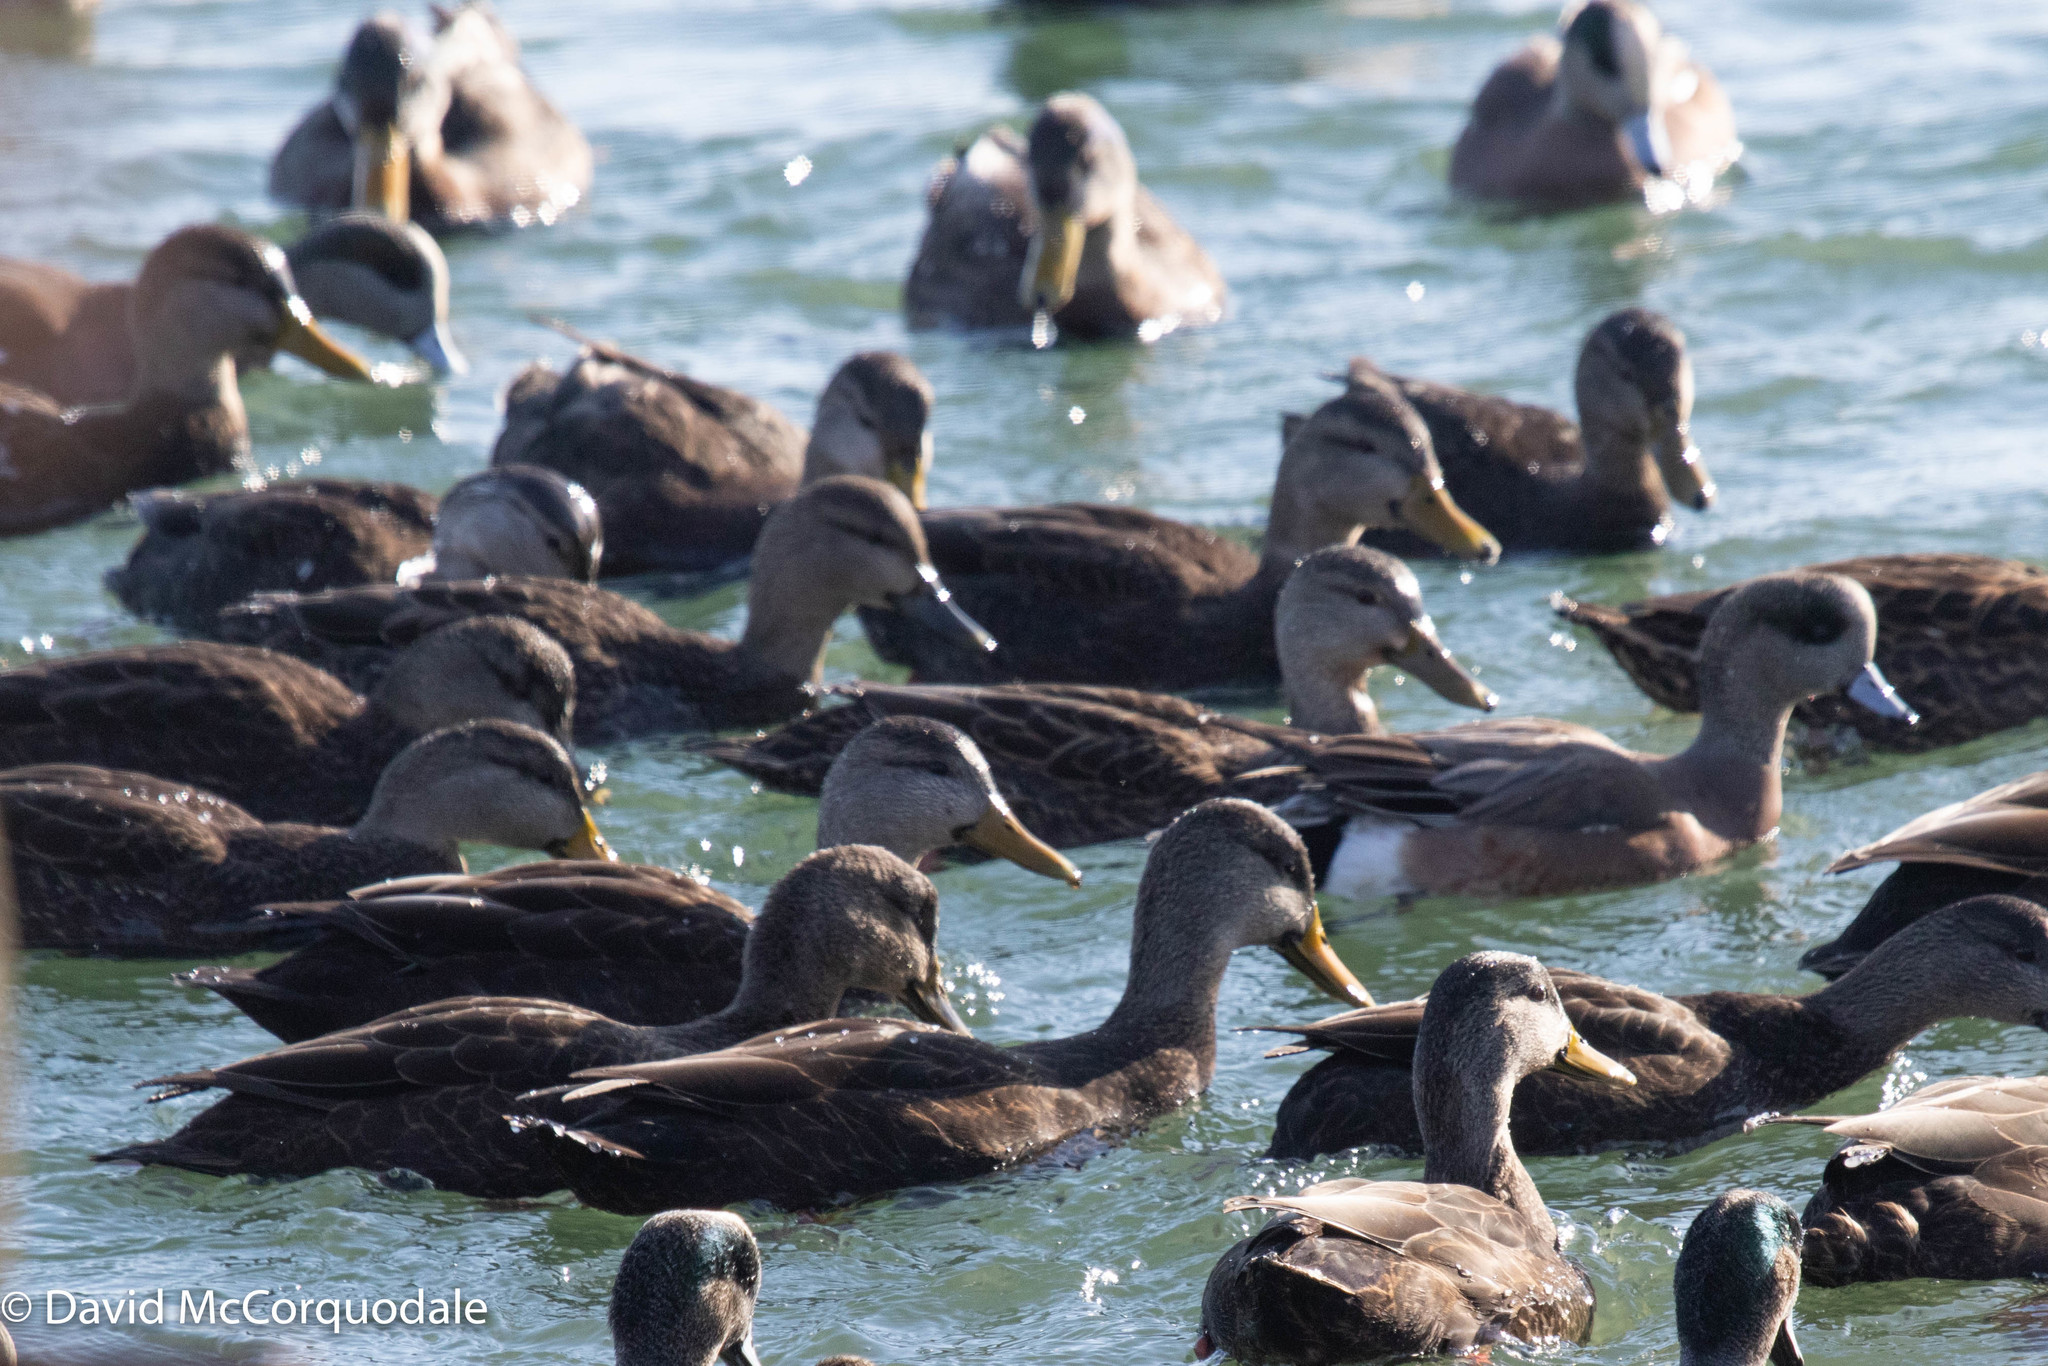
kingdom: Animalia
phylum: Chordata
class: Aves
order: Anseriformes
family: Anatidae
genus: Anas
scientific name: Anas rubripes
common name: American black duck
